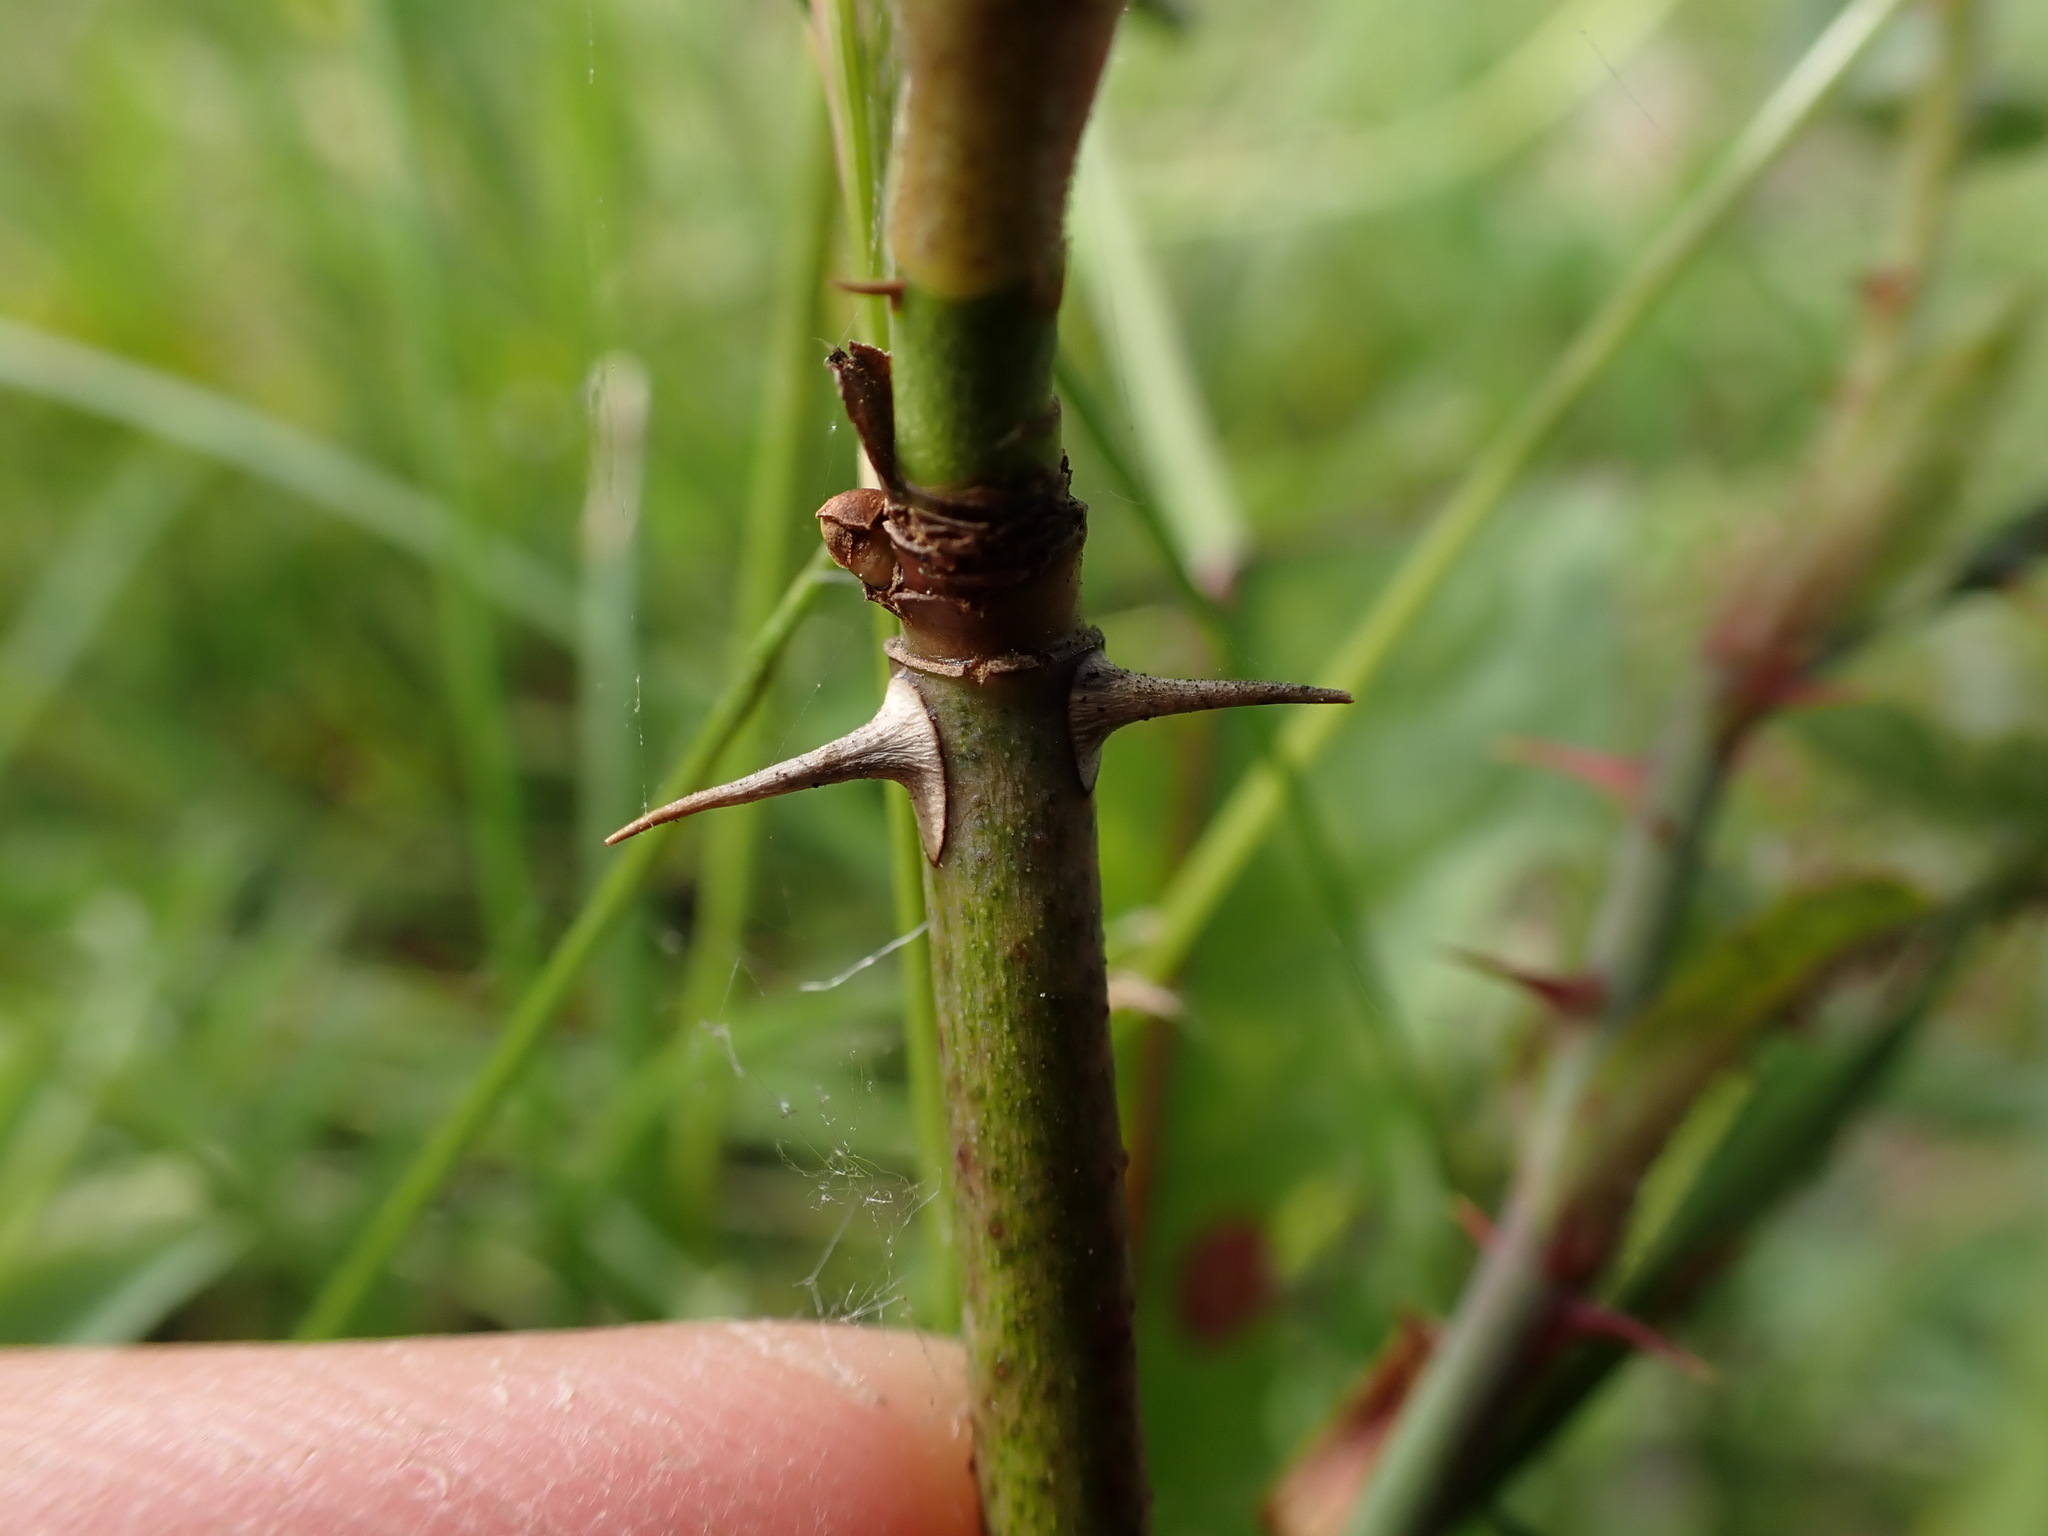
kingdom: Plantae
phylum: Tracheophyta
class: Magnoliopsida
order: Rosales
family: Rosaceae
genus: Rosa
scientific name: Rosa mollis
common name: Rose
